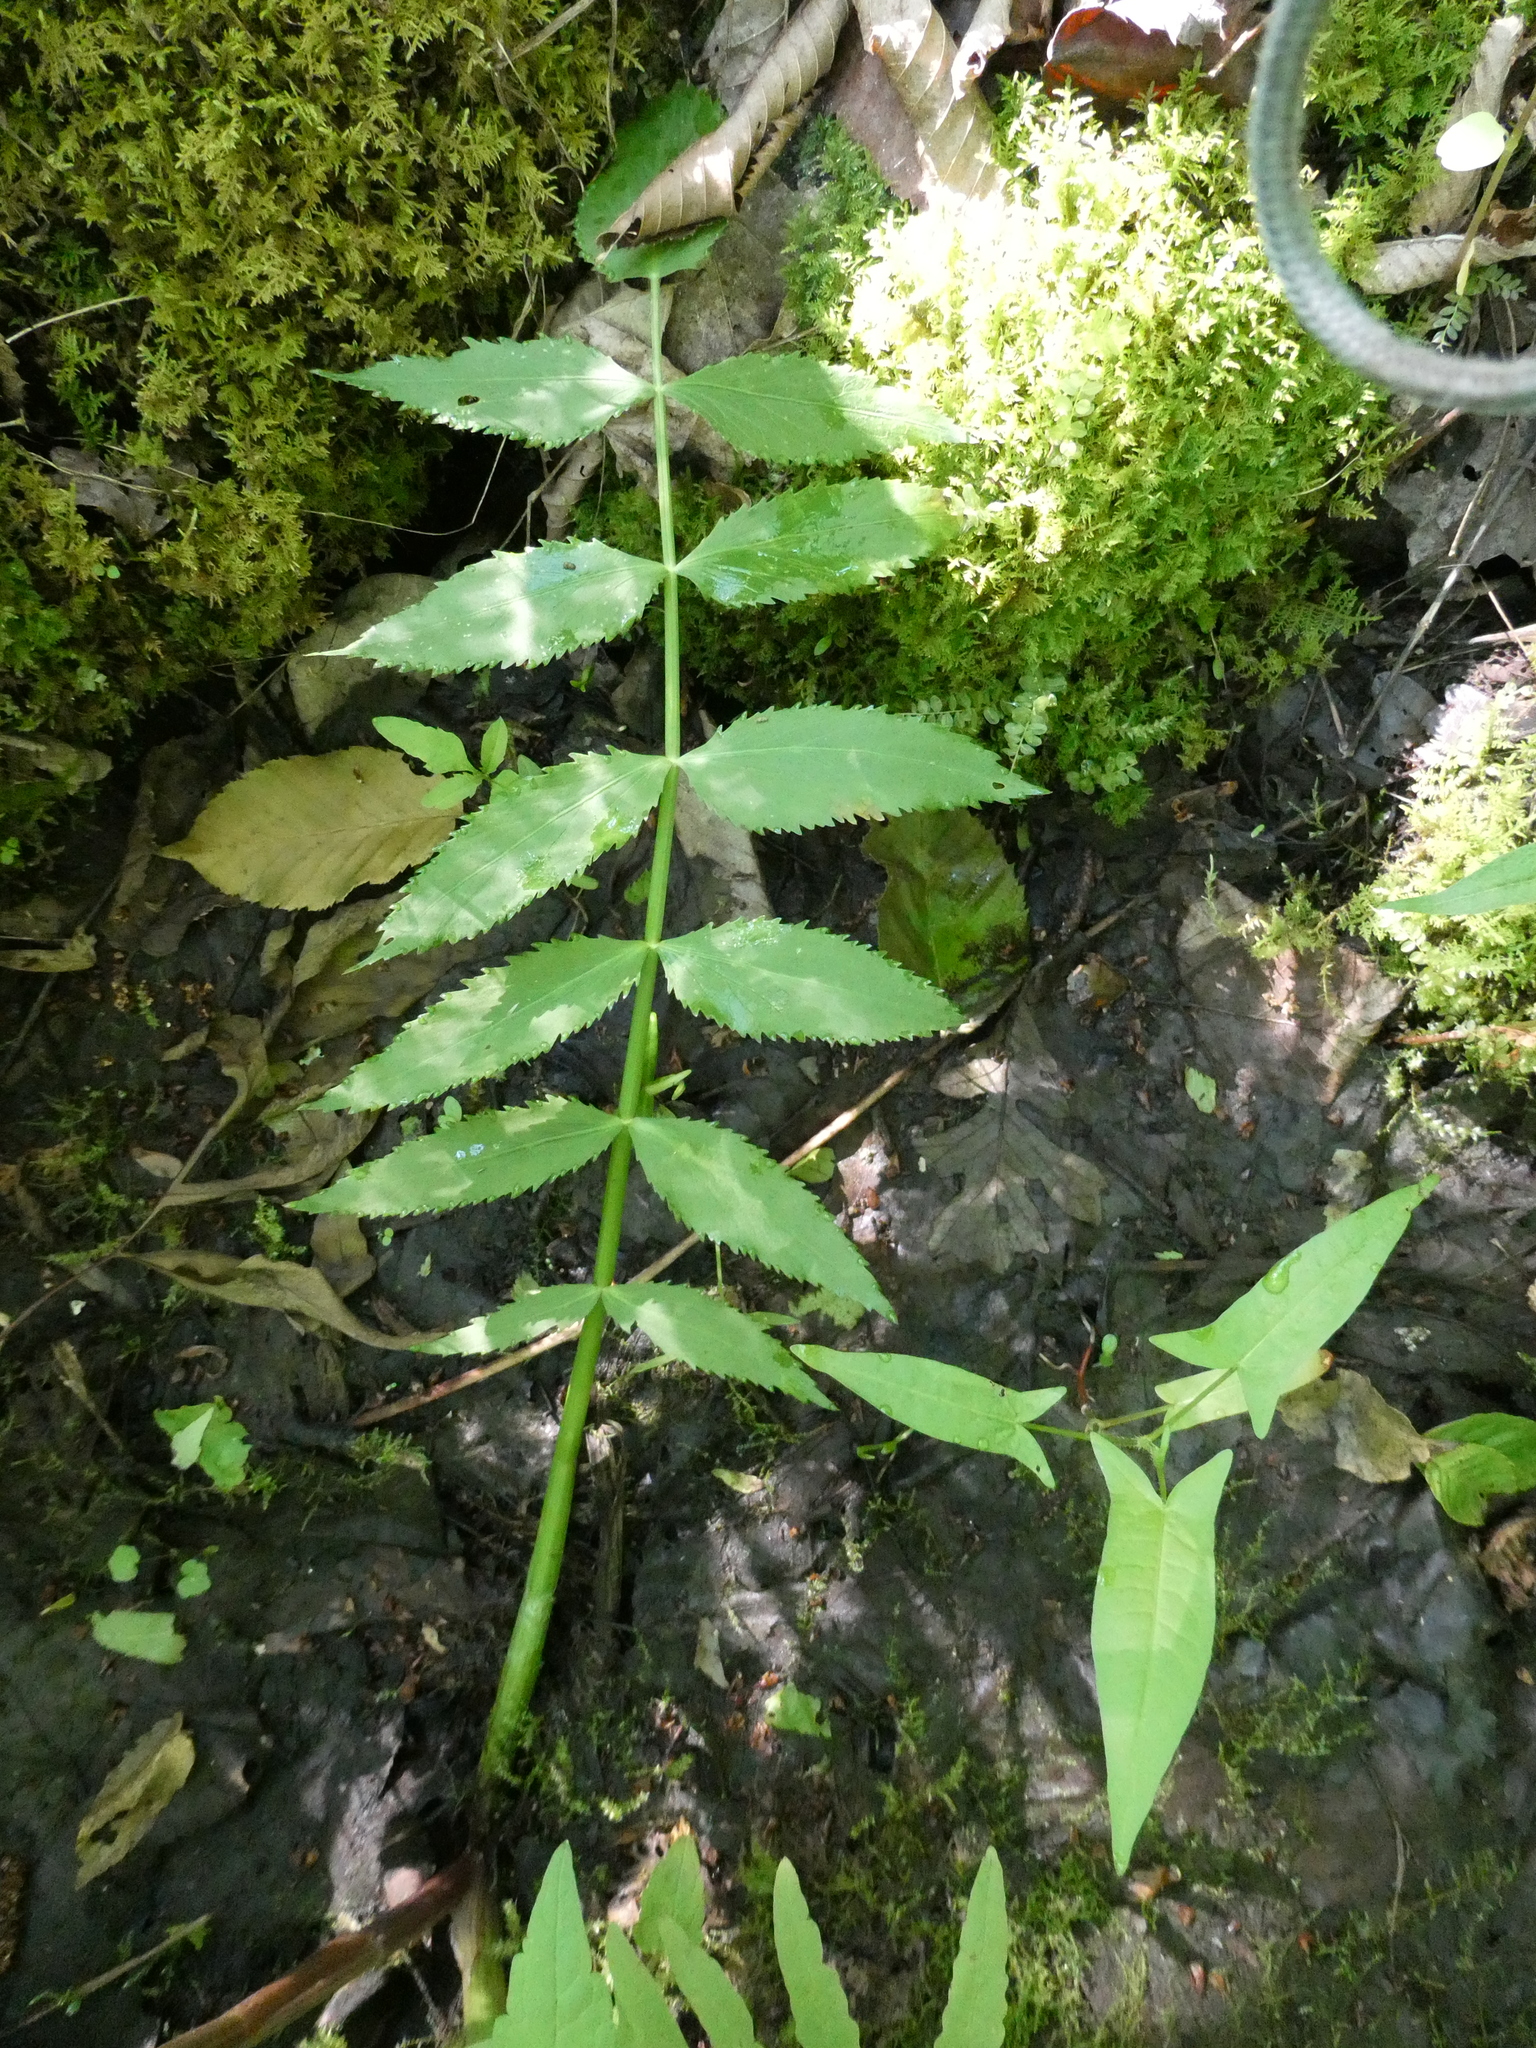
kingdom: Plantae
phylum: Tracheophyta
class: Magnoliopsida
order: Apiales
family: Apiaceae
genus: Sium
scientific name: Sium suave
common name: Hemlock water-parsnip
